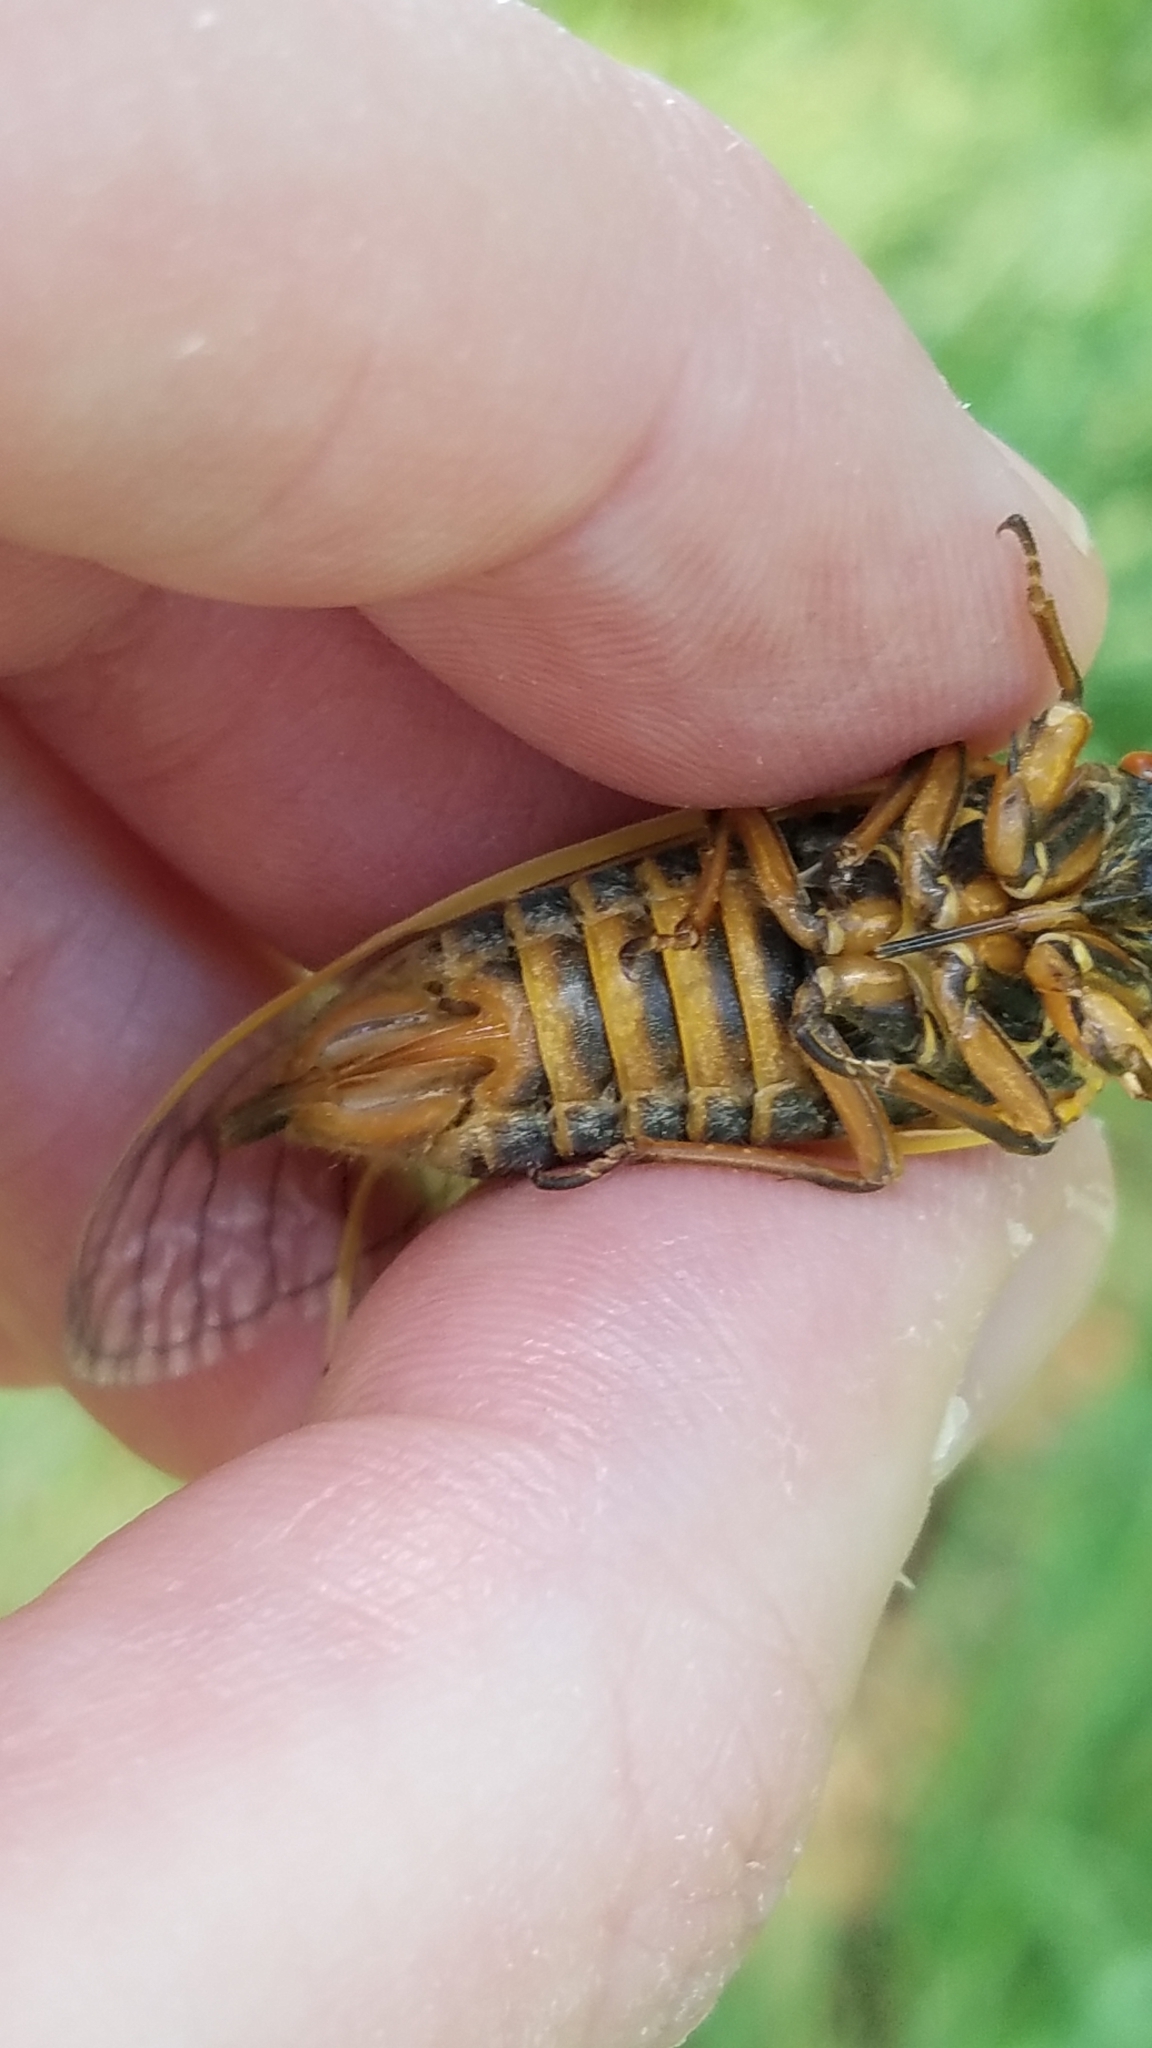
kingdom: Animalia
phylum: Arthropoda
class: Insecta
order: Hemiptera
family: Cicadidae
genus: Magicicada
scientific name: Magicicada septendecim
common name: Periodical cicada
